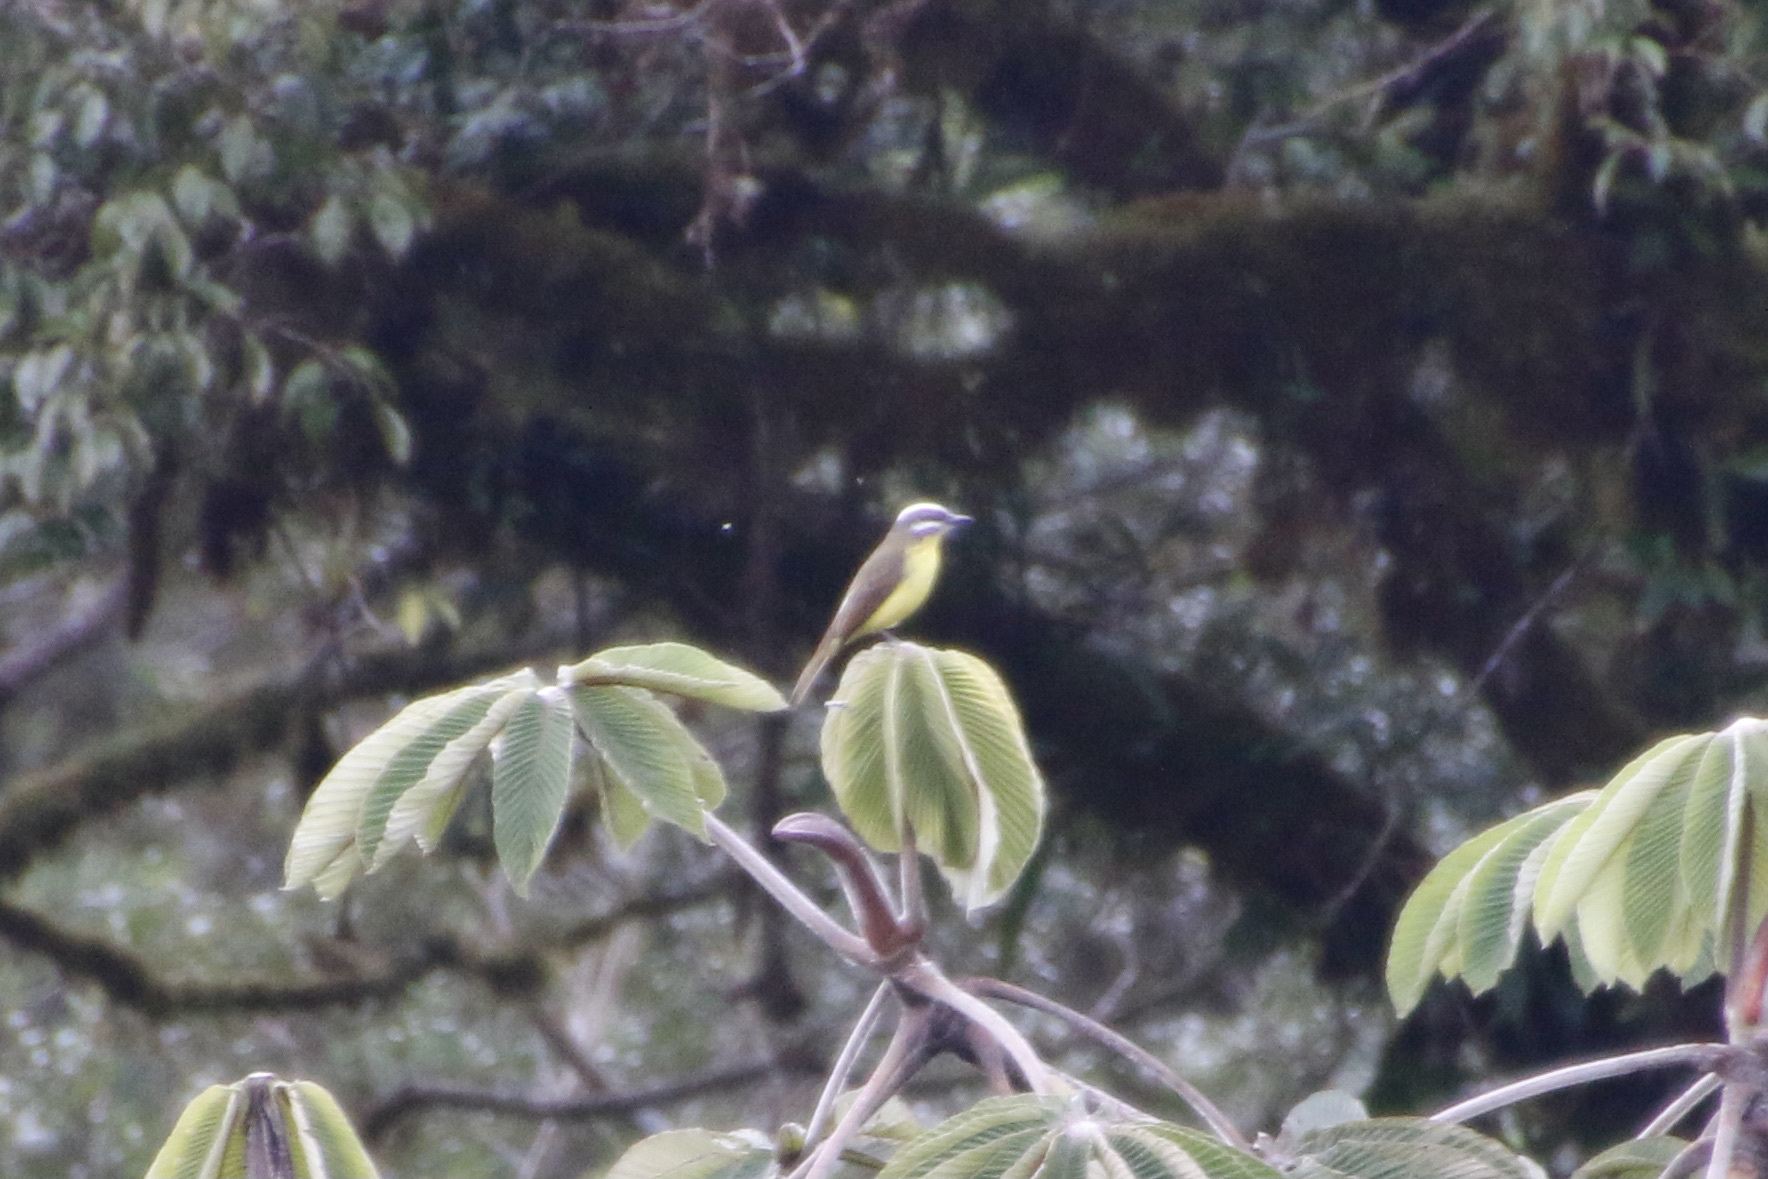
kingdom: Animalia
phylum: Chordata
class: Aves
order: Passeriformes
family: Tyrannidae
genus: Myiodynastes
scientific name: Myiodynastes hemichrysus
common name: Golden-bellied flycatcher
